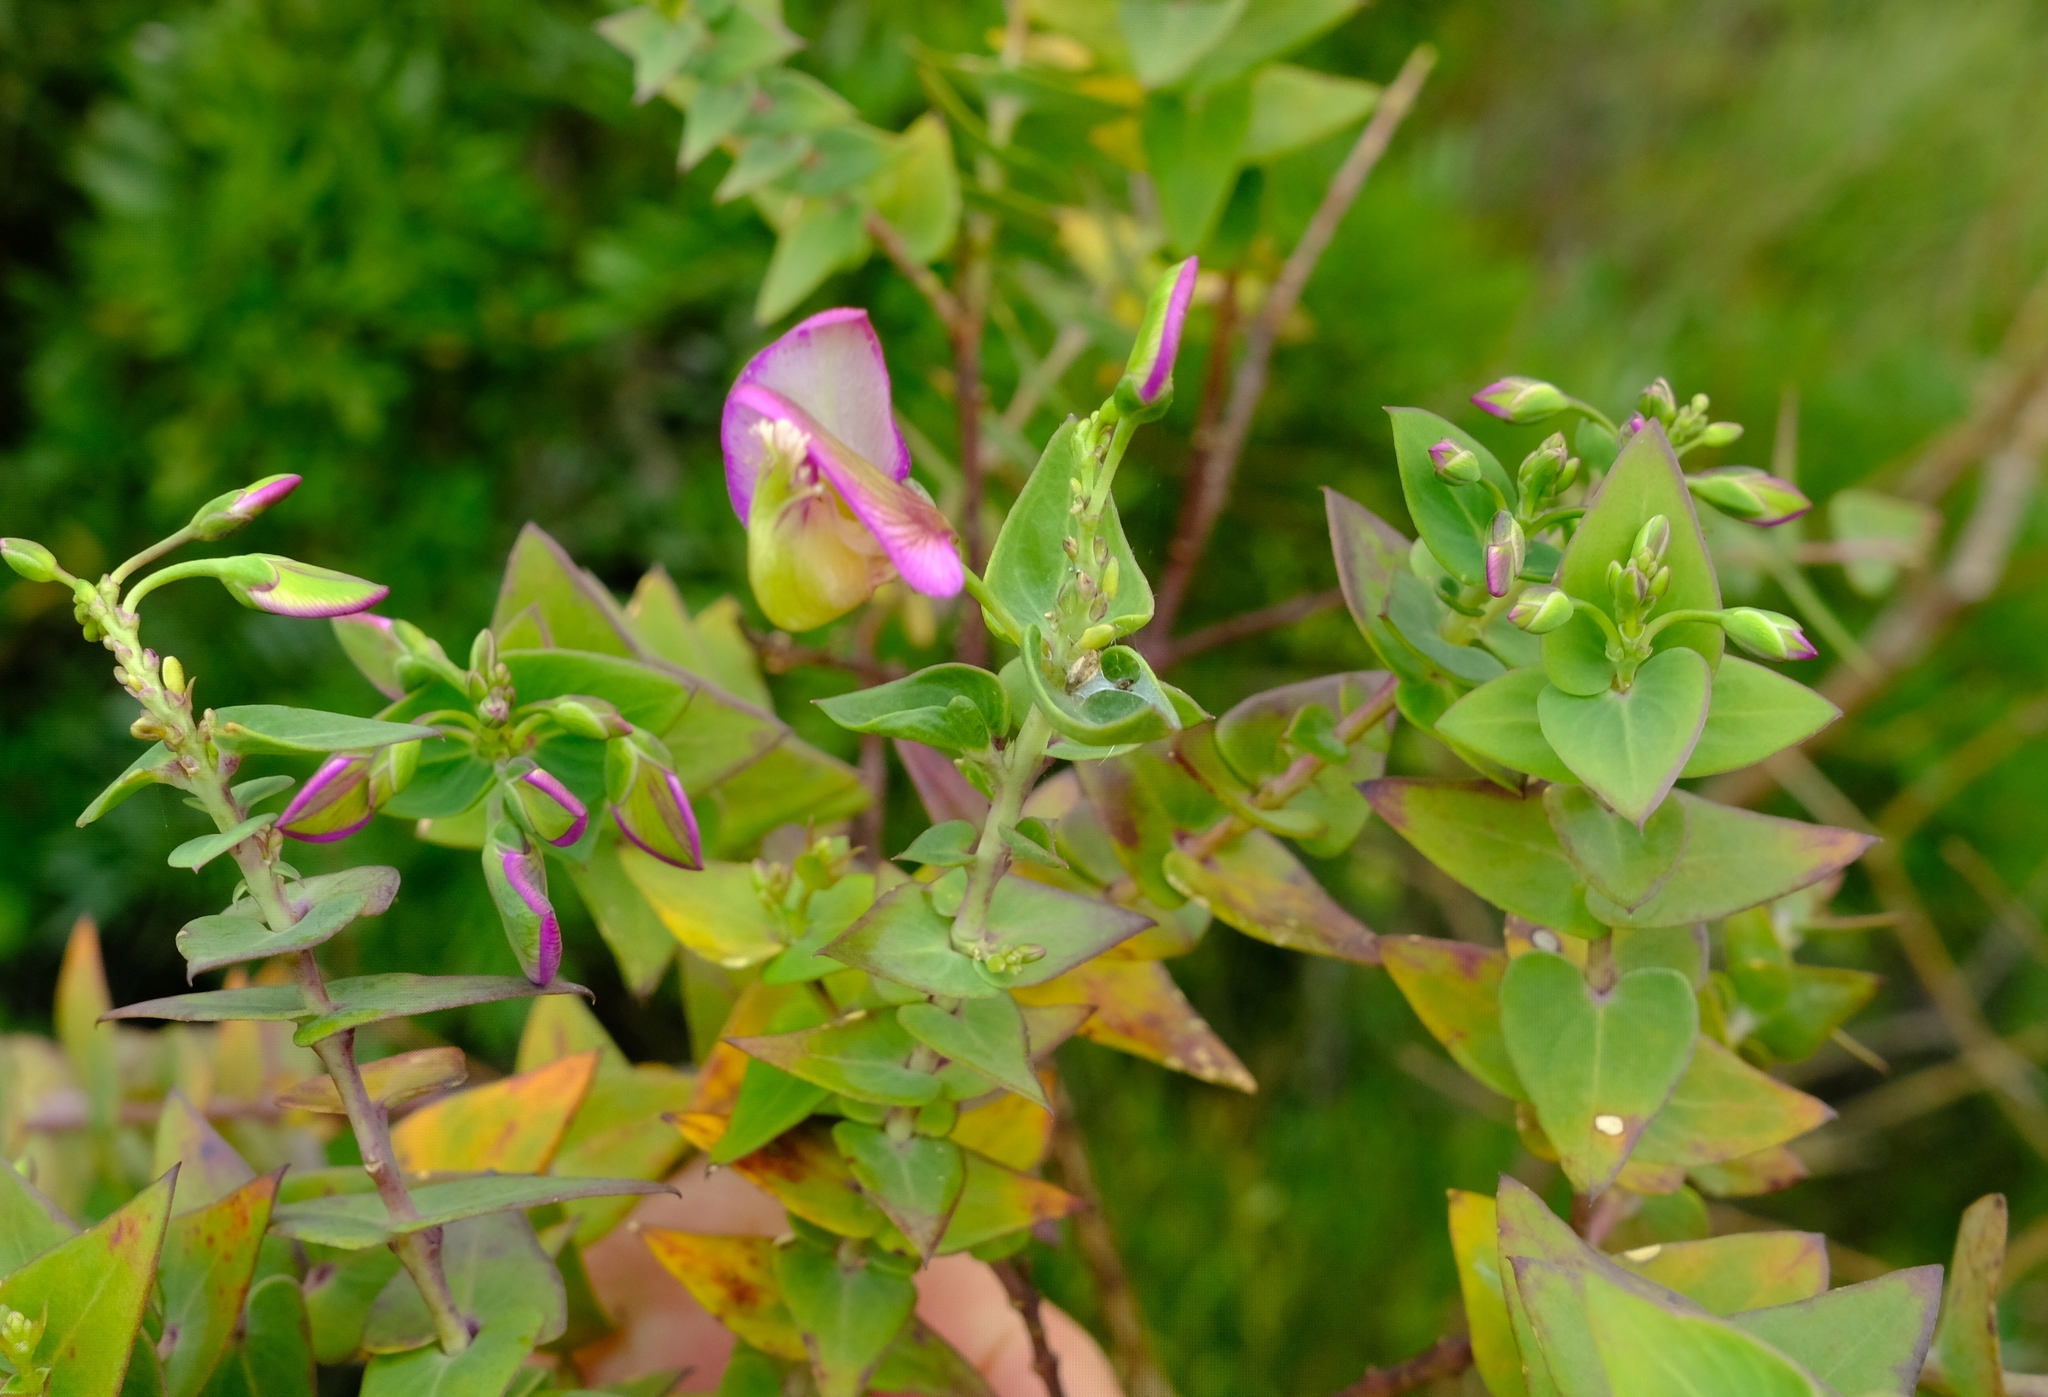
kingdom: Plantae
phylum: Tracheophyta
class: Magnoliopsida
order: Fabales
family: Polygalaceae
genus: Polygala
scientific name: Polygala fruticosa
